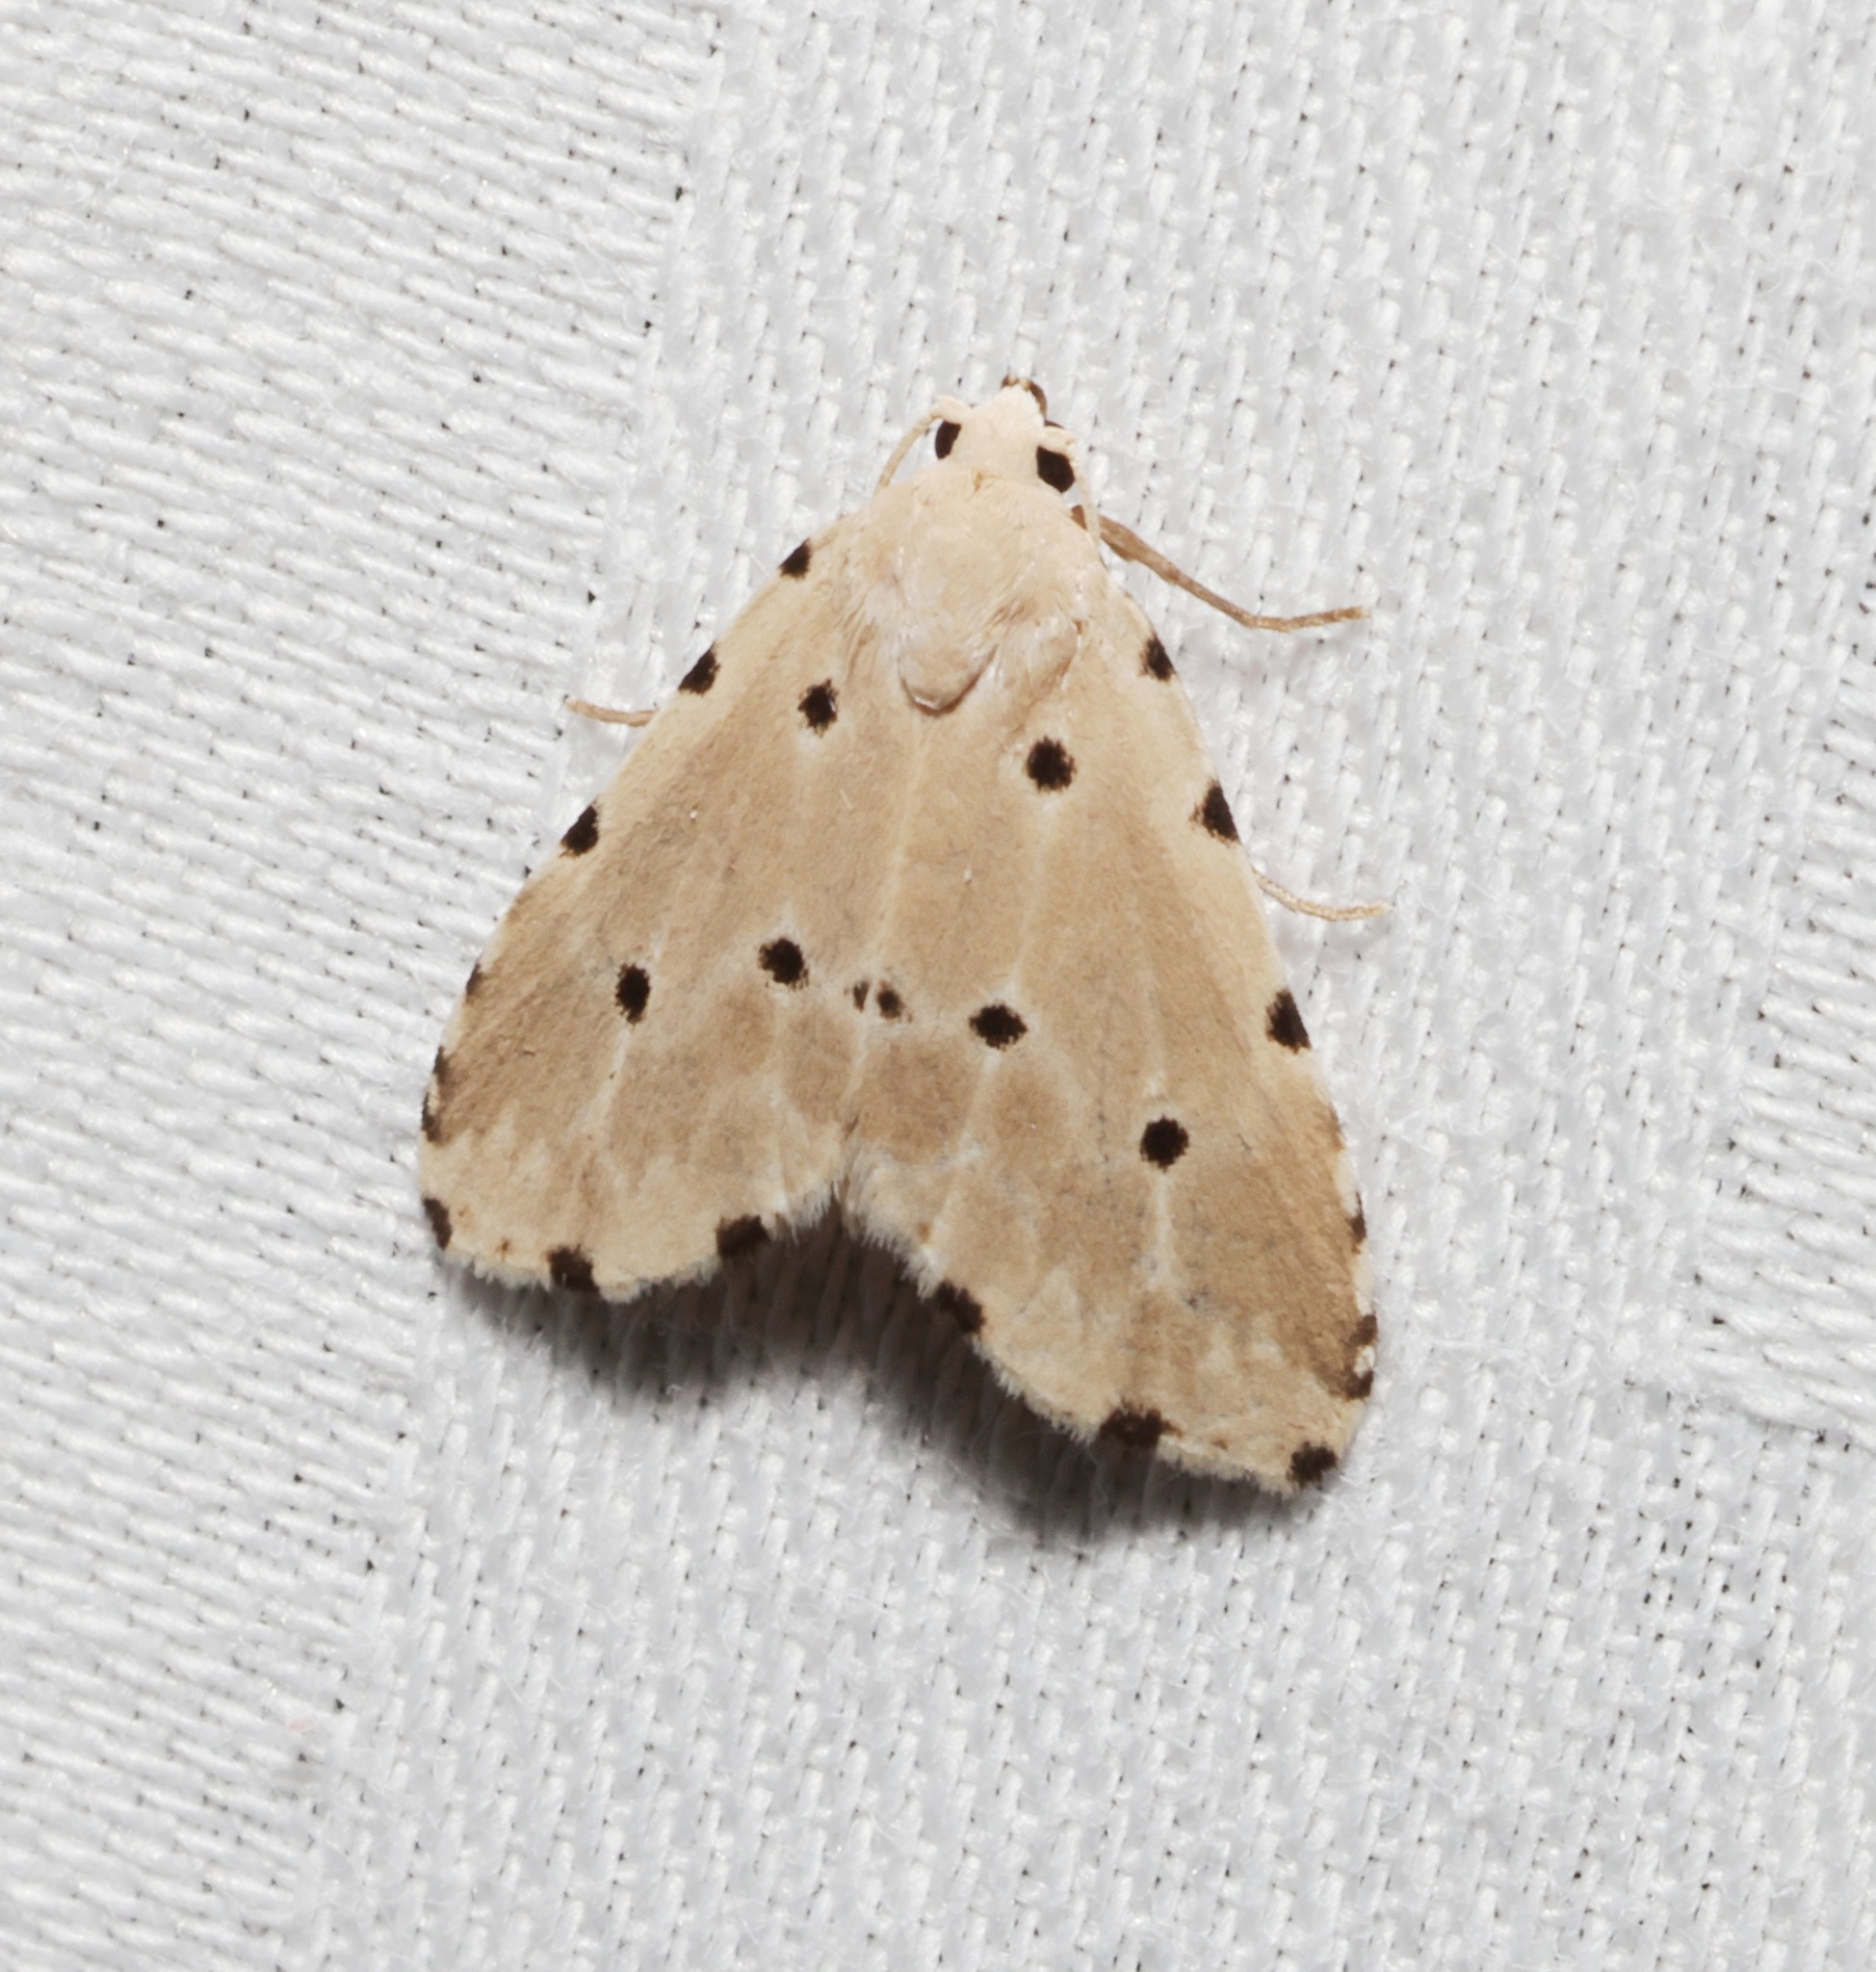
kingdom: Animalia
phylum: Arthropoda
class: Insecta
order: Lepidoptera
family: Noctuidae
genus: Metaemene
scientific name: Metaemene atrigutta
